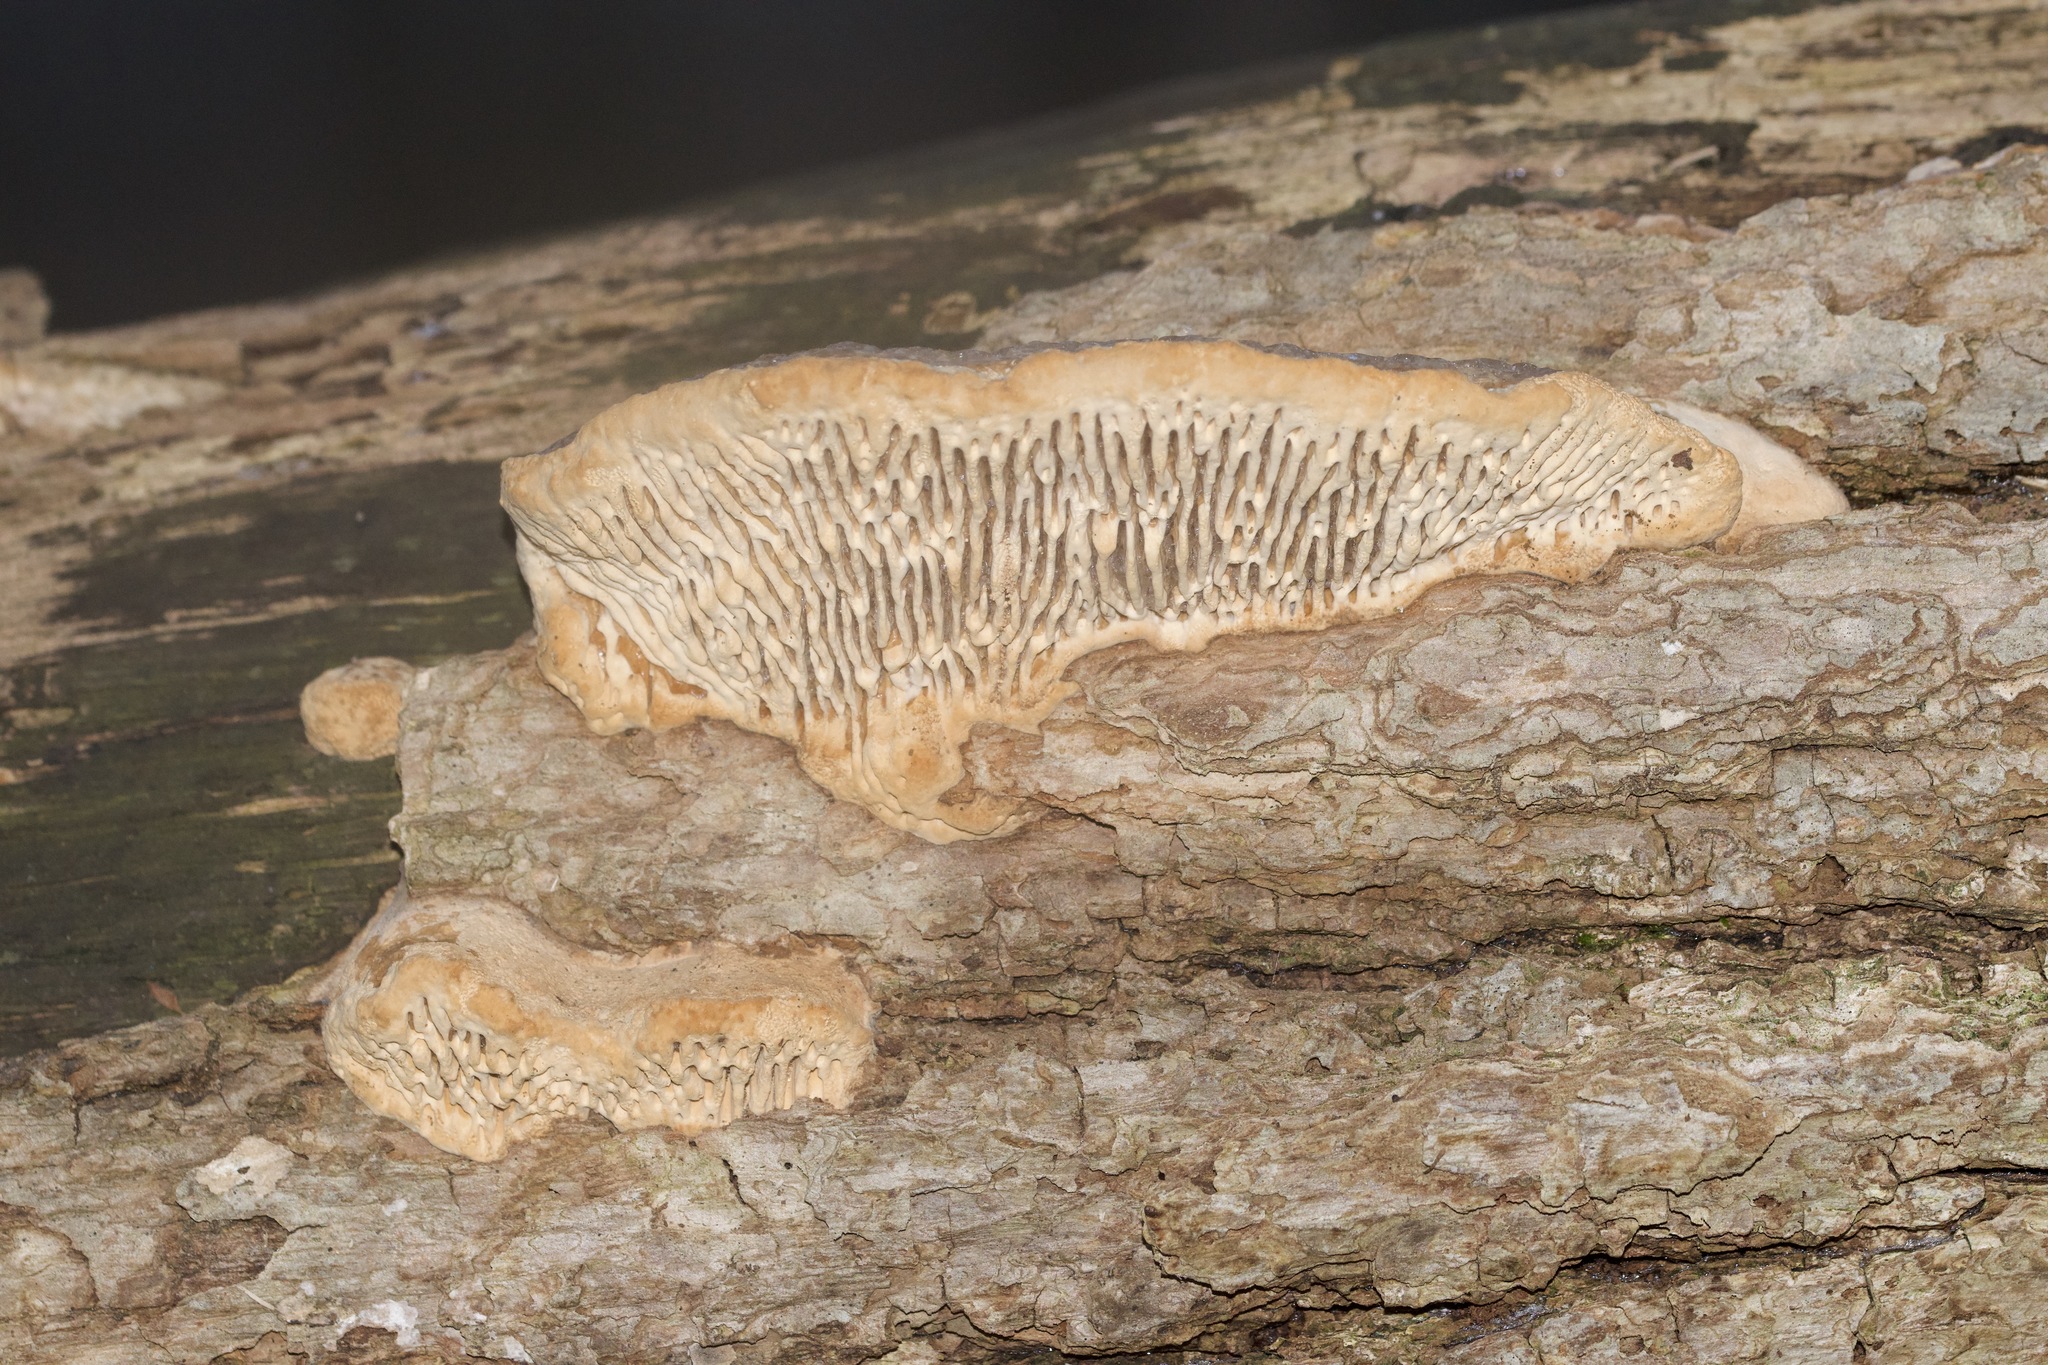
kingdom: Fungi
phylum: Basidiomycota
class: Agaricomycetes
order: Polyporales
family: Fomitopsidaceae
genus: Fomitopsis
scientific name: Fomitopsis
